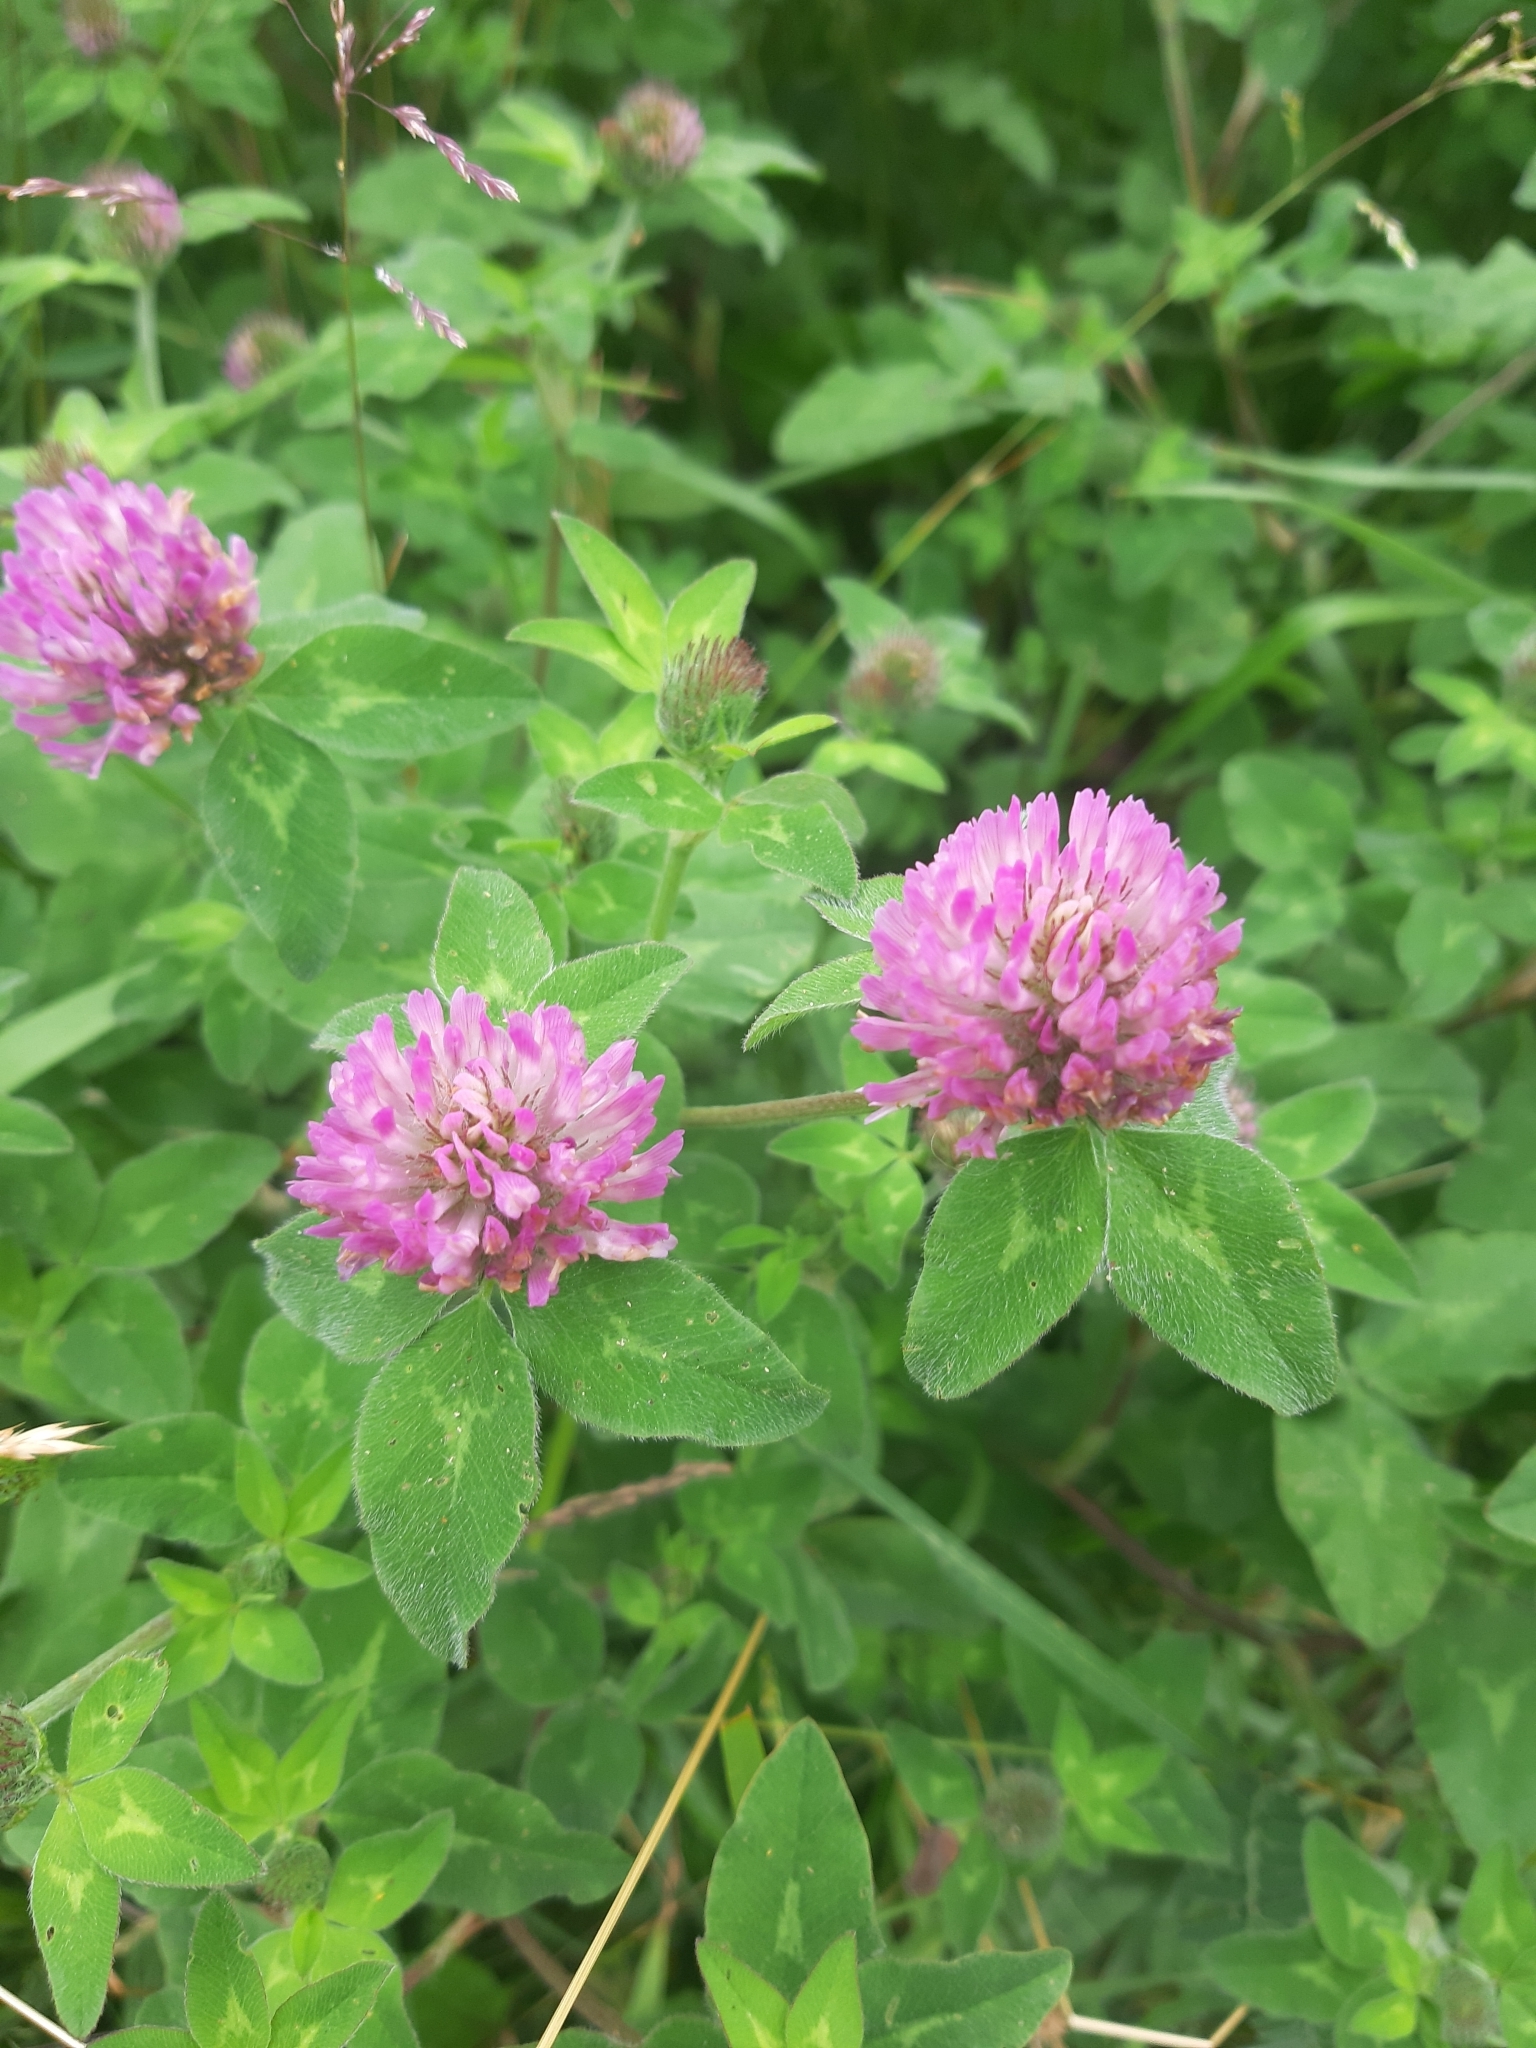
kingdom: Plantae
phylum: Tracheophyta
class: Magnoliopsida
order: Fabales
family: Fabaceae
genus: Trifolium
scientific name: Trifolium pratense
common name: Red clover
